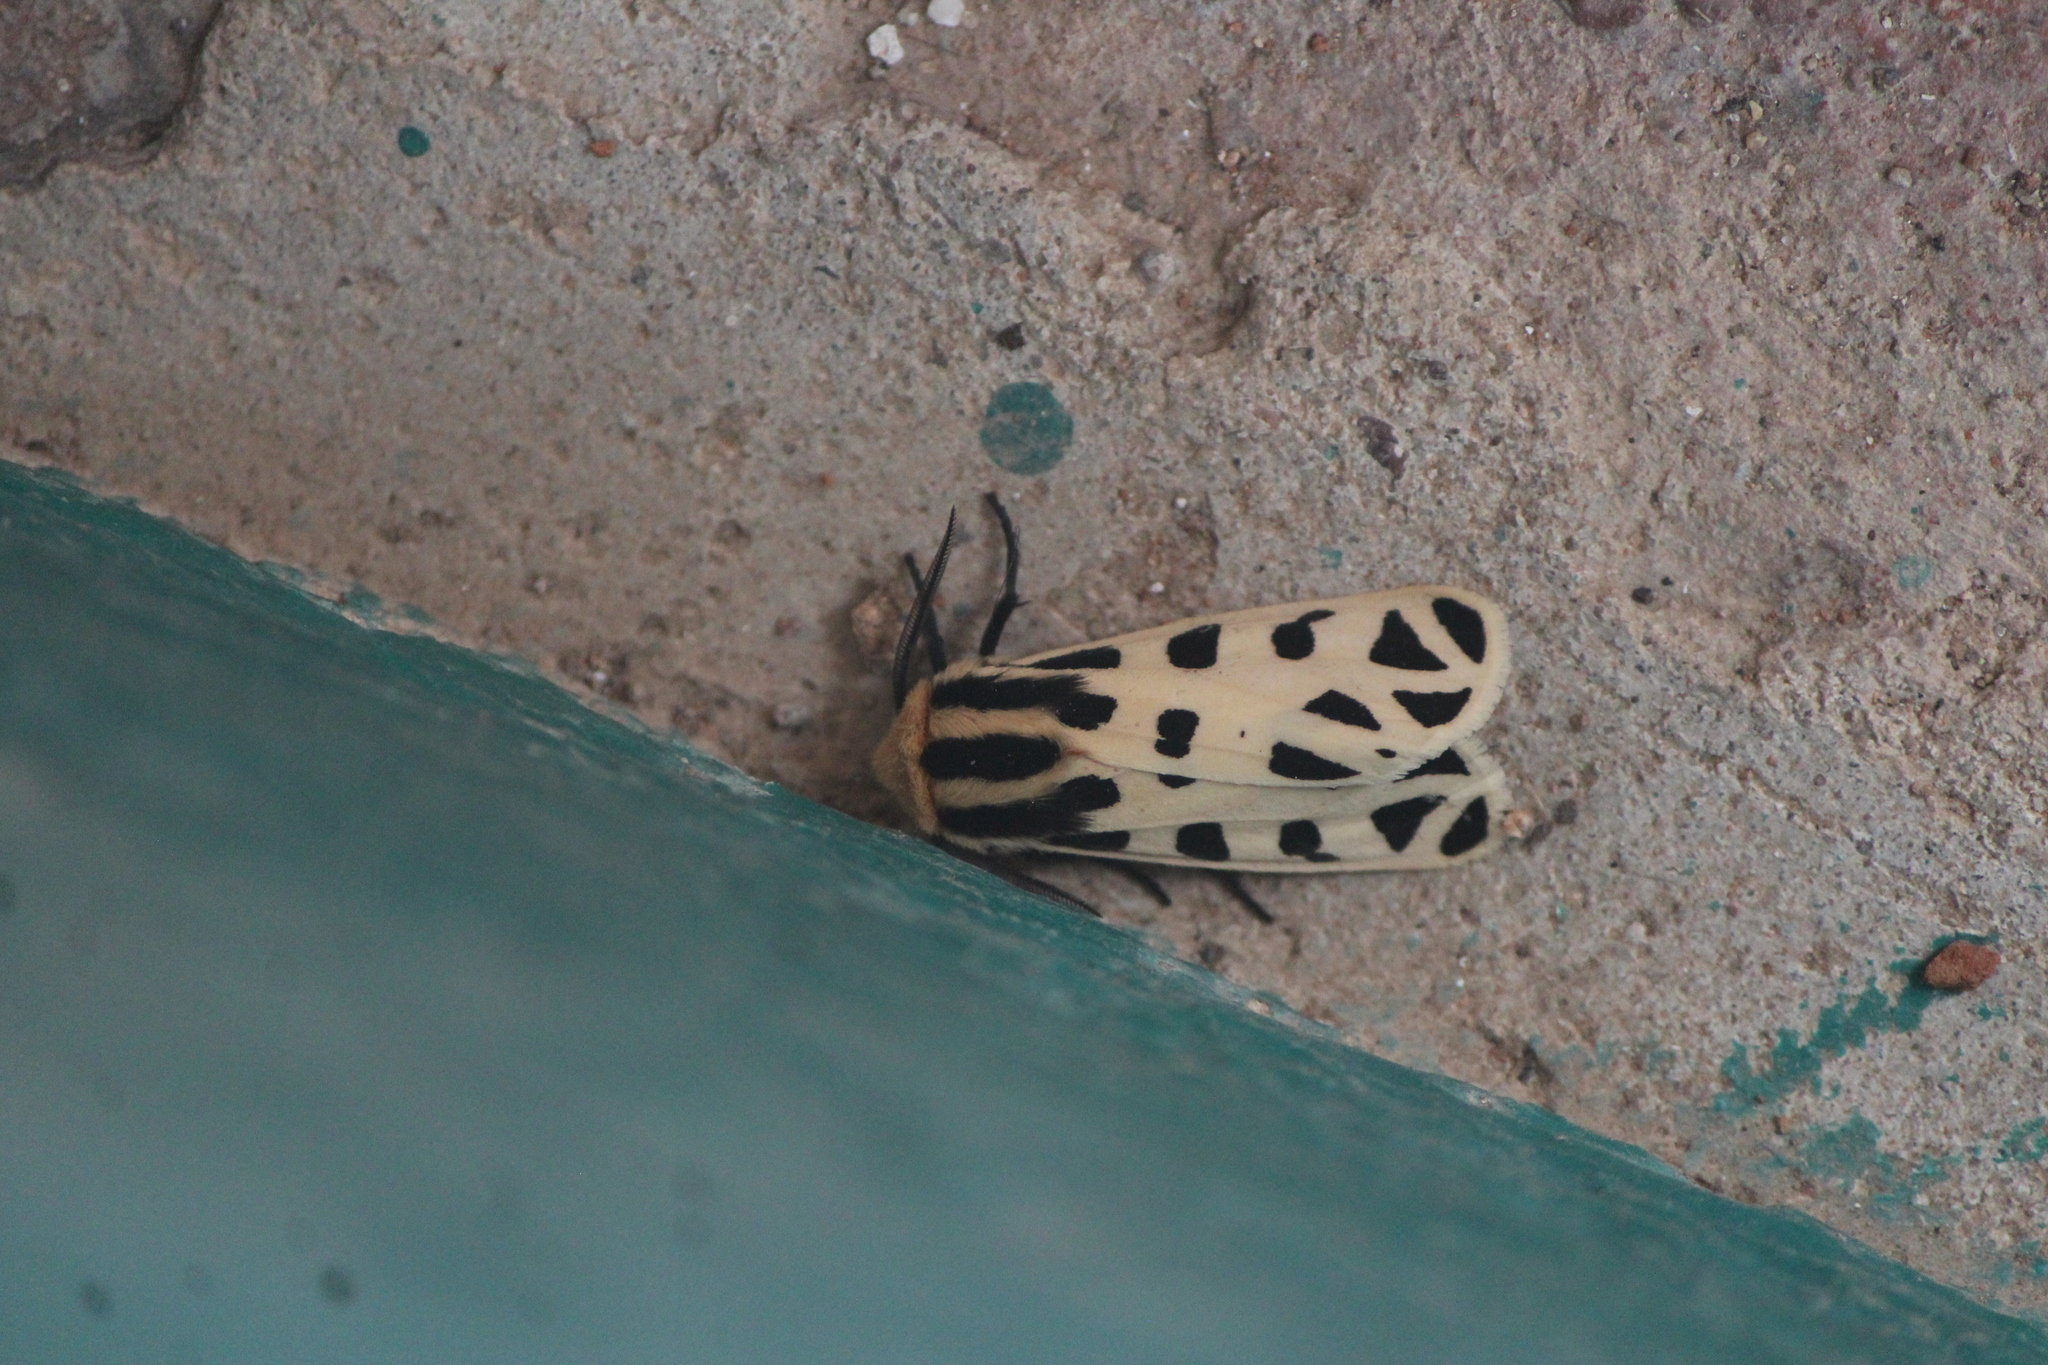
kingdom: Animalia
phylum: Arthropoda
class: Insecta
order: Lepidoptera
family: Erebidae
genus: Apantesis
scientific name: Apantesis
